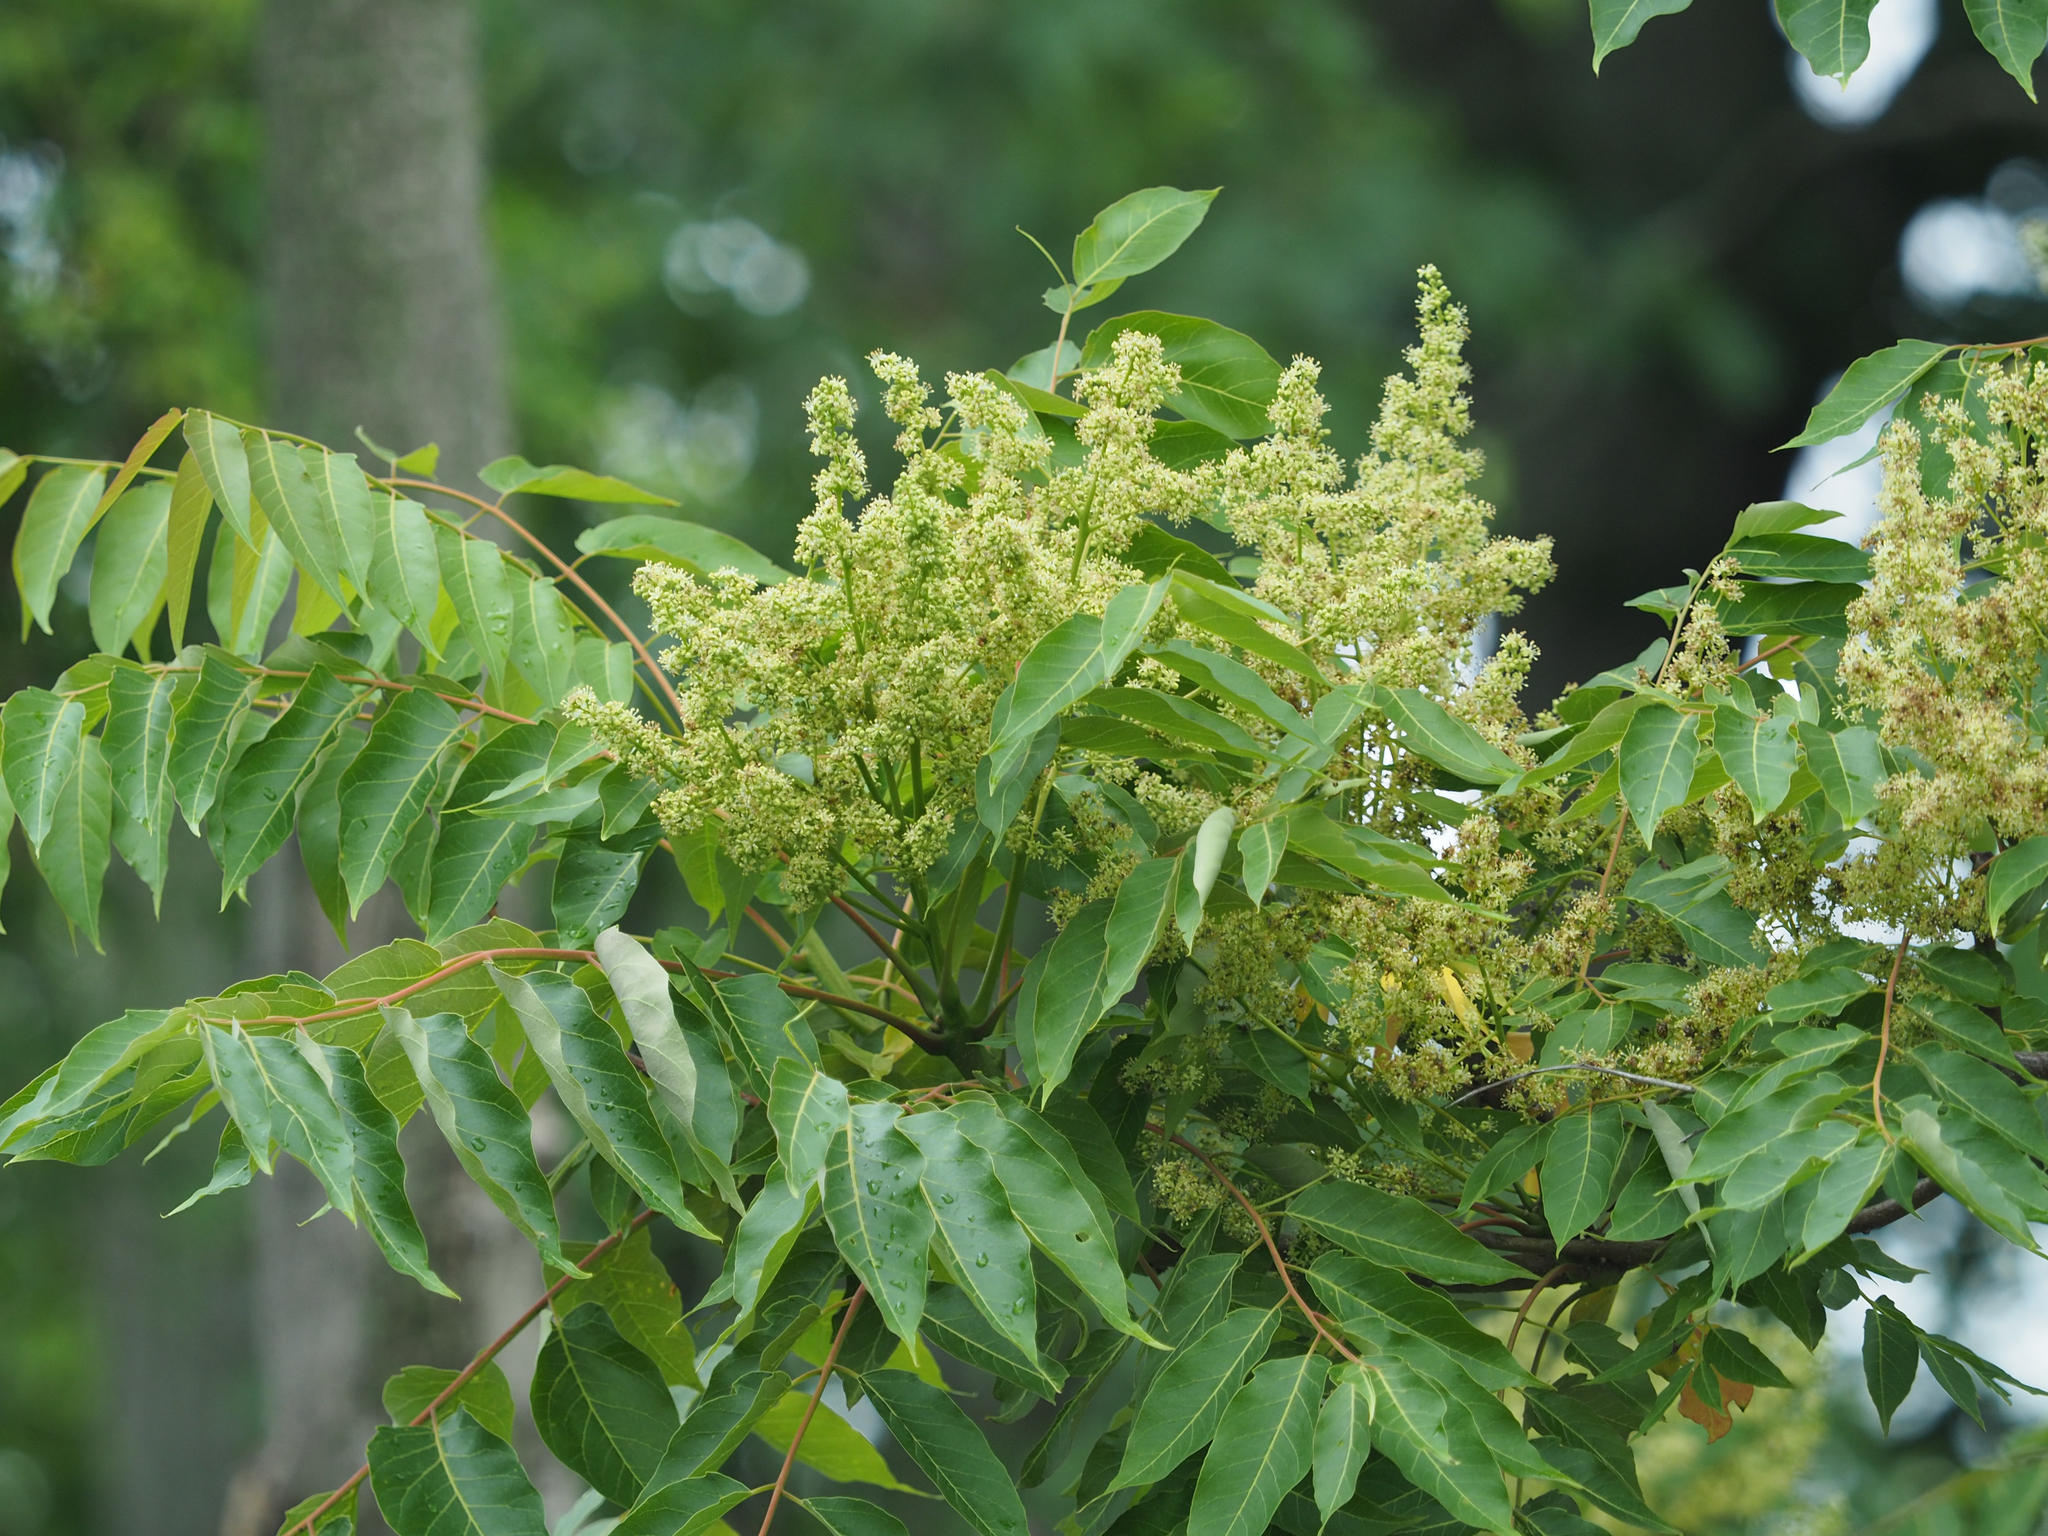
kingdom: Plantae
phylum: Tracheophyta
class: Magnoliopsida
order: Sapindales
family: Simaroubaceae
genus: Ailanthus
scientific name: Ailanthus altissima
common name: Tree-of-heaven
